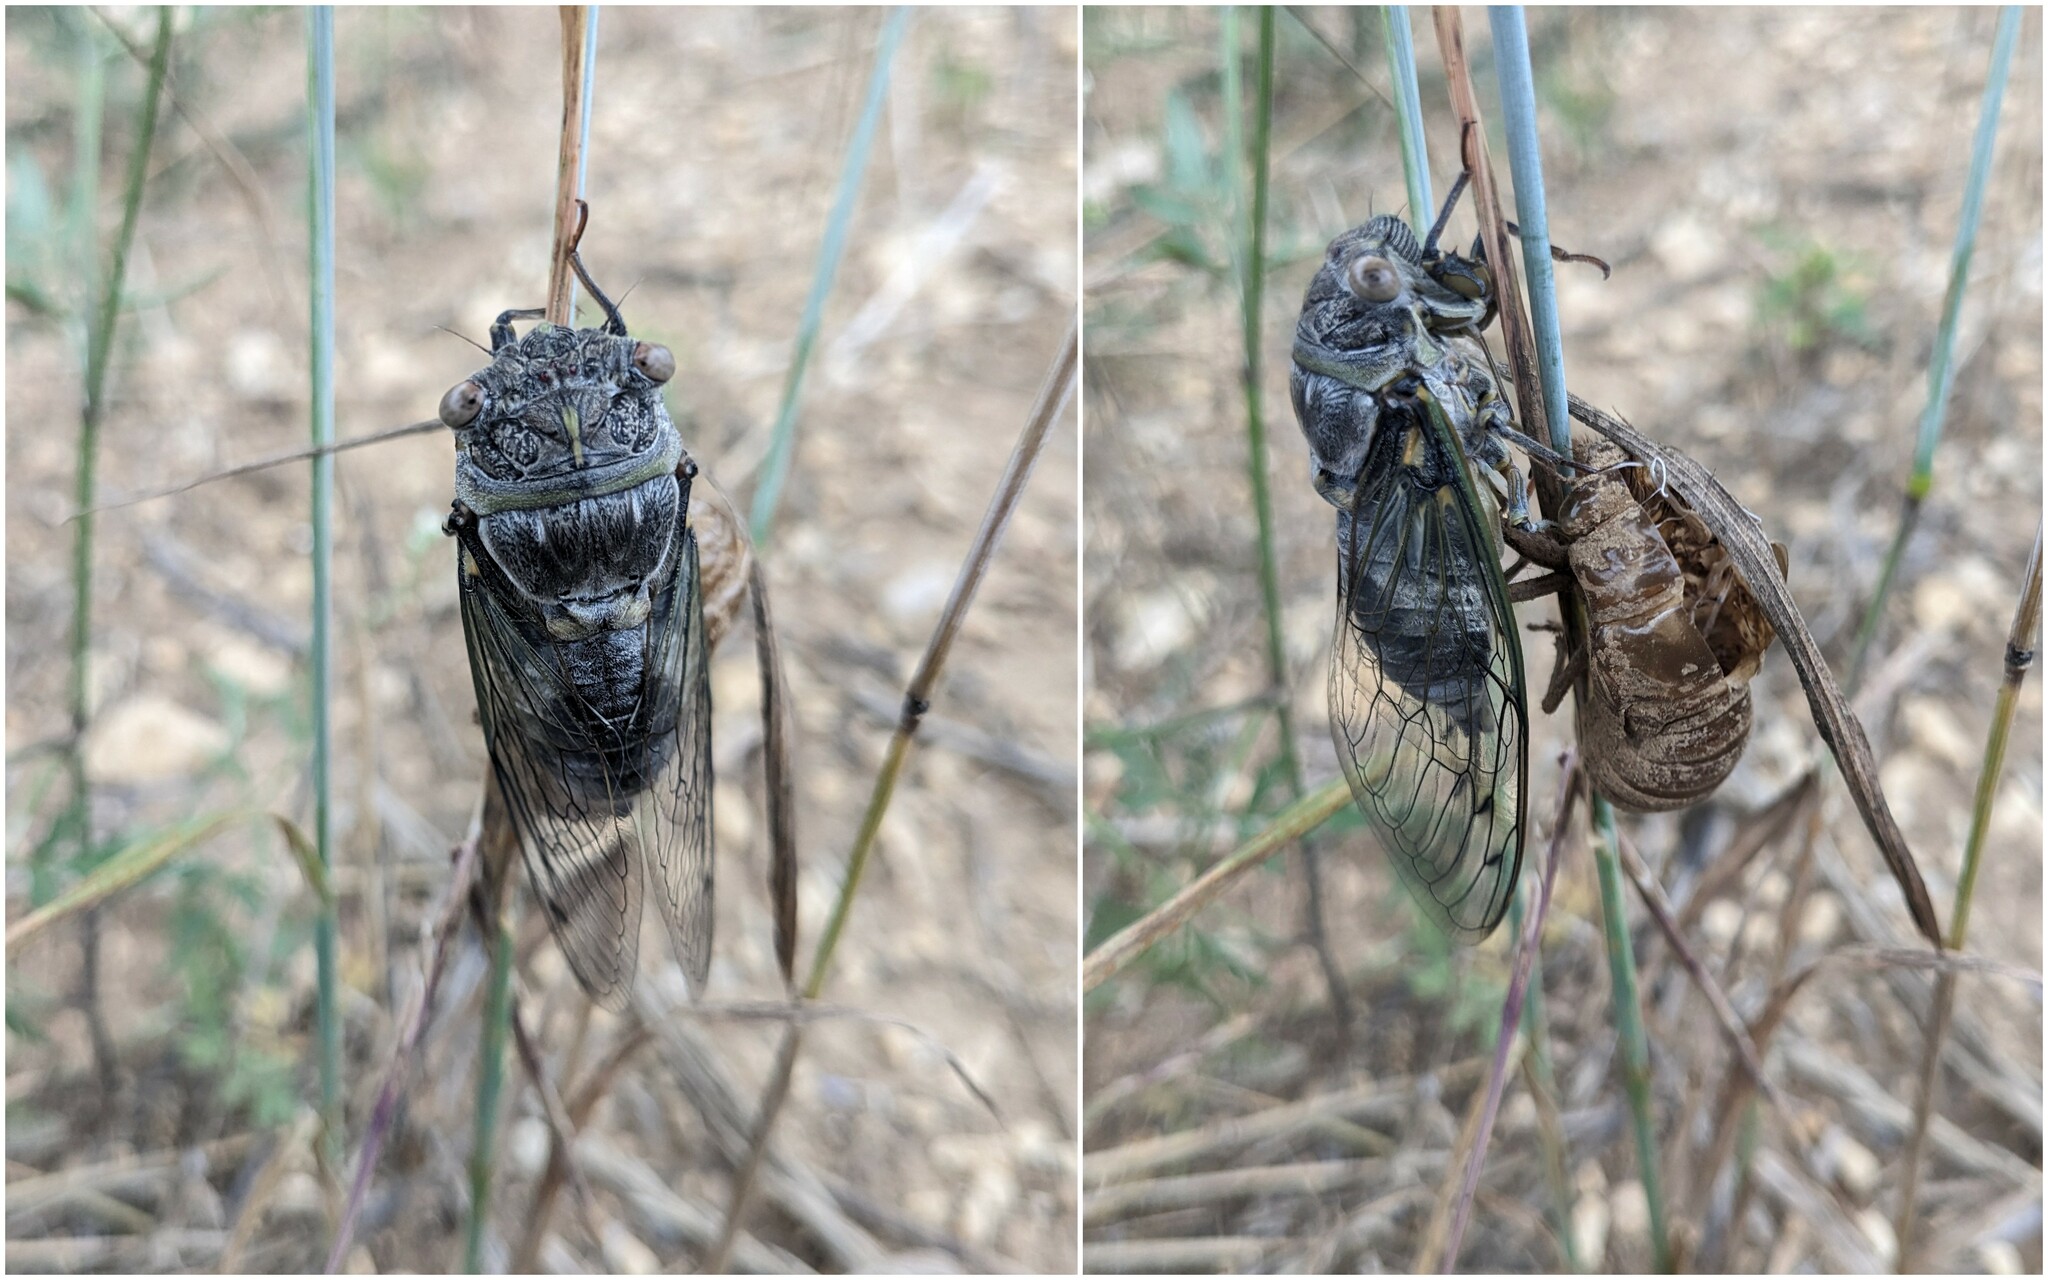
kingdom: Animalia
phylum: Arthropoda
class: Insecta
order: Hemiptera
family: Cicadidae
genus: Lyristes
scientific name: Lyristes plebejus
